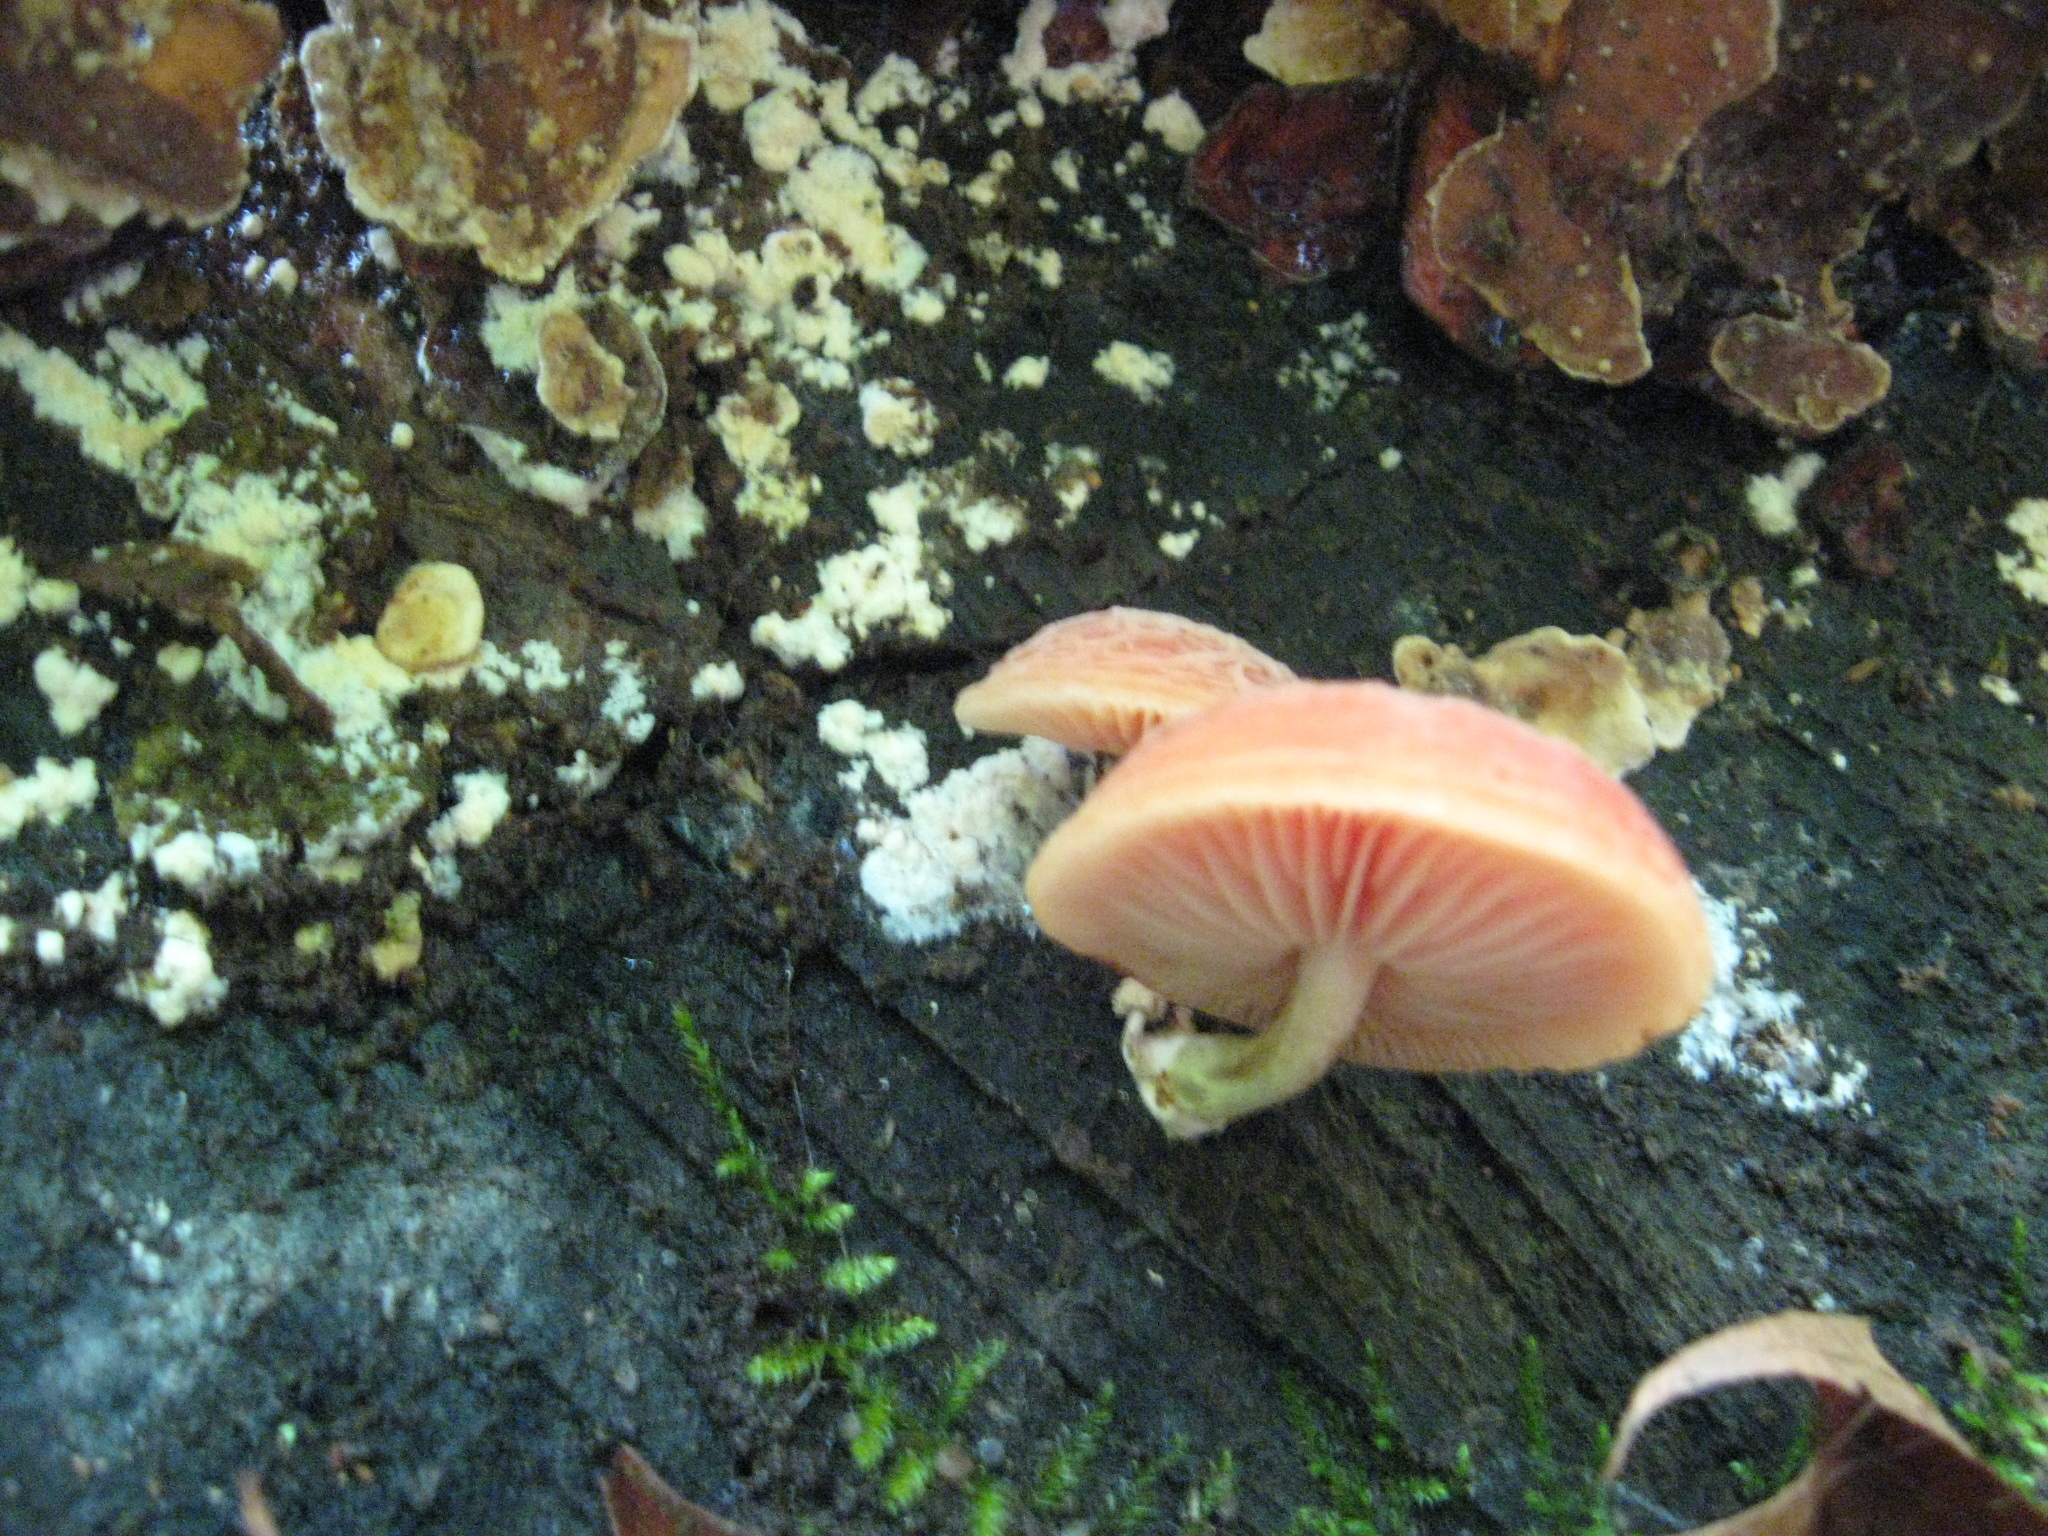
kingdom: Fungi
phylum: Basidiomycota
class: Agaricomycetes
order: Agaricales
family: Physalacriaceae
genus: Rhodotus
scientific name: Rhodotus palmatus
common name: Wrinkled peach
